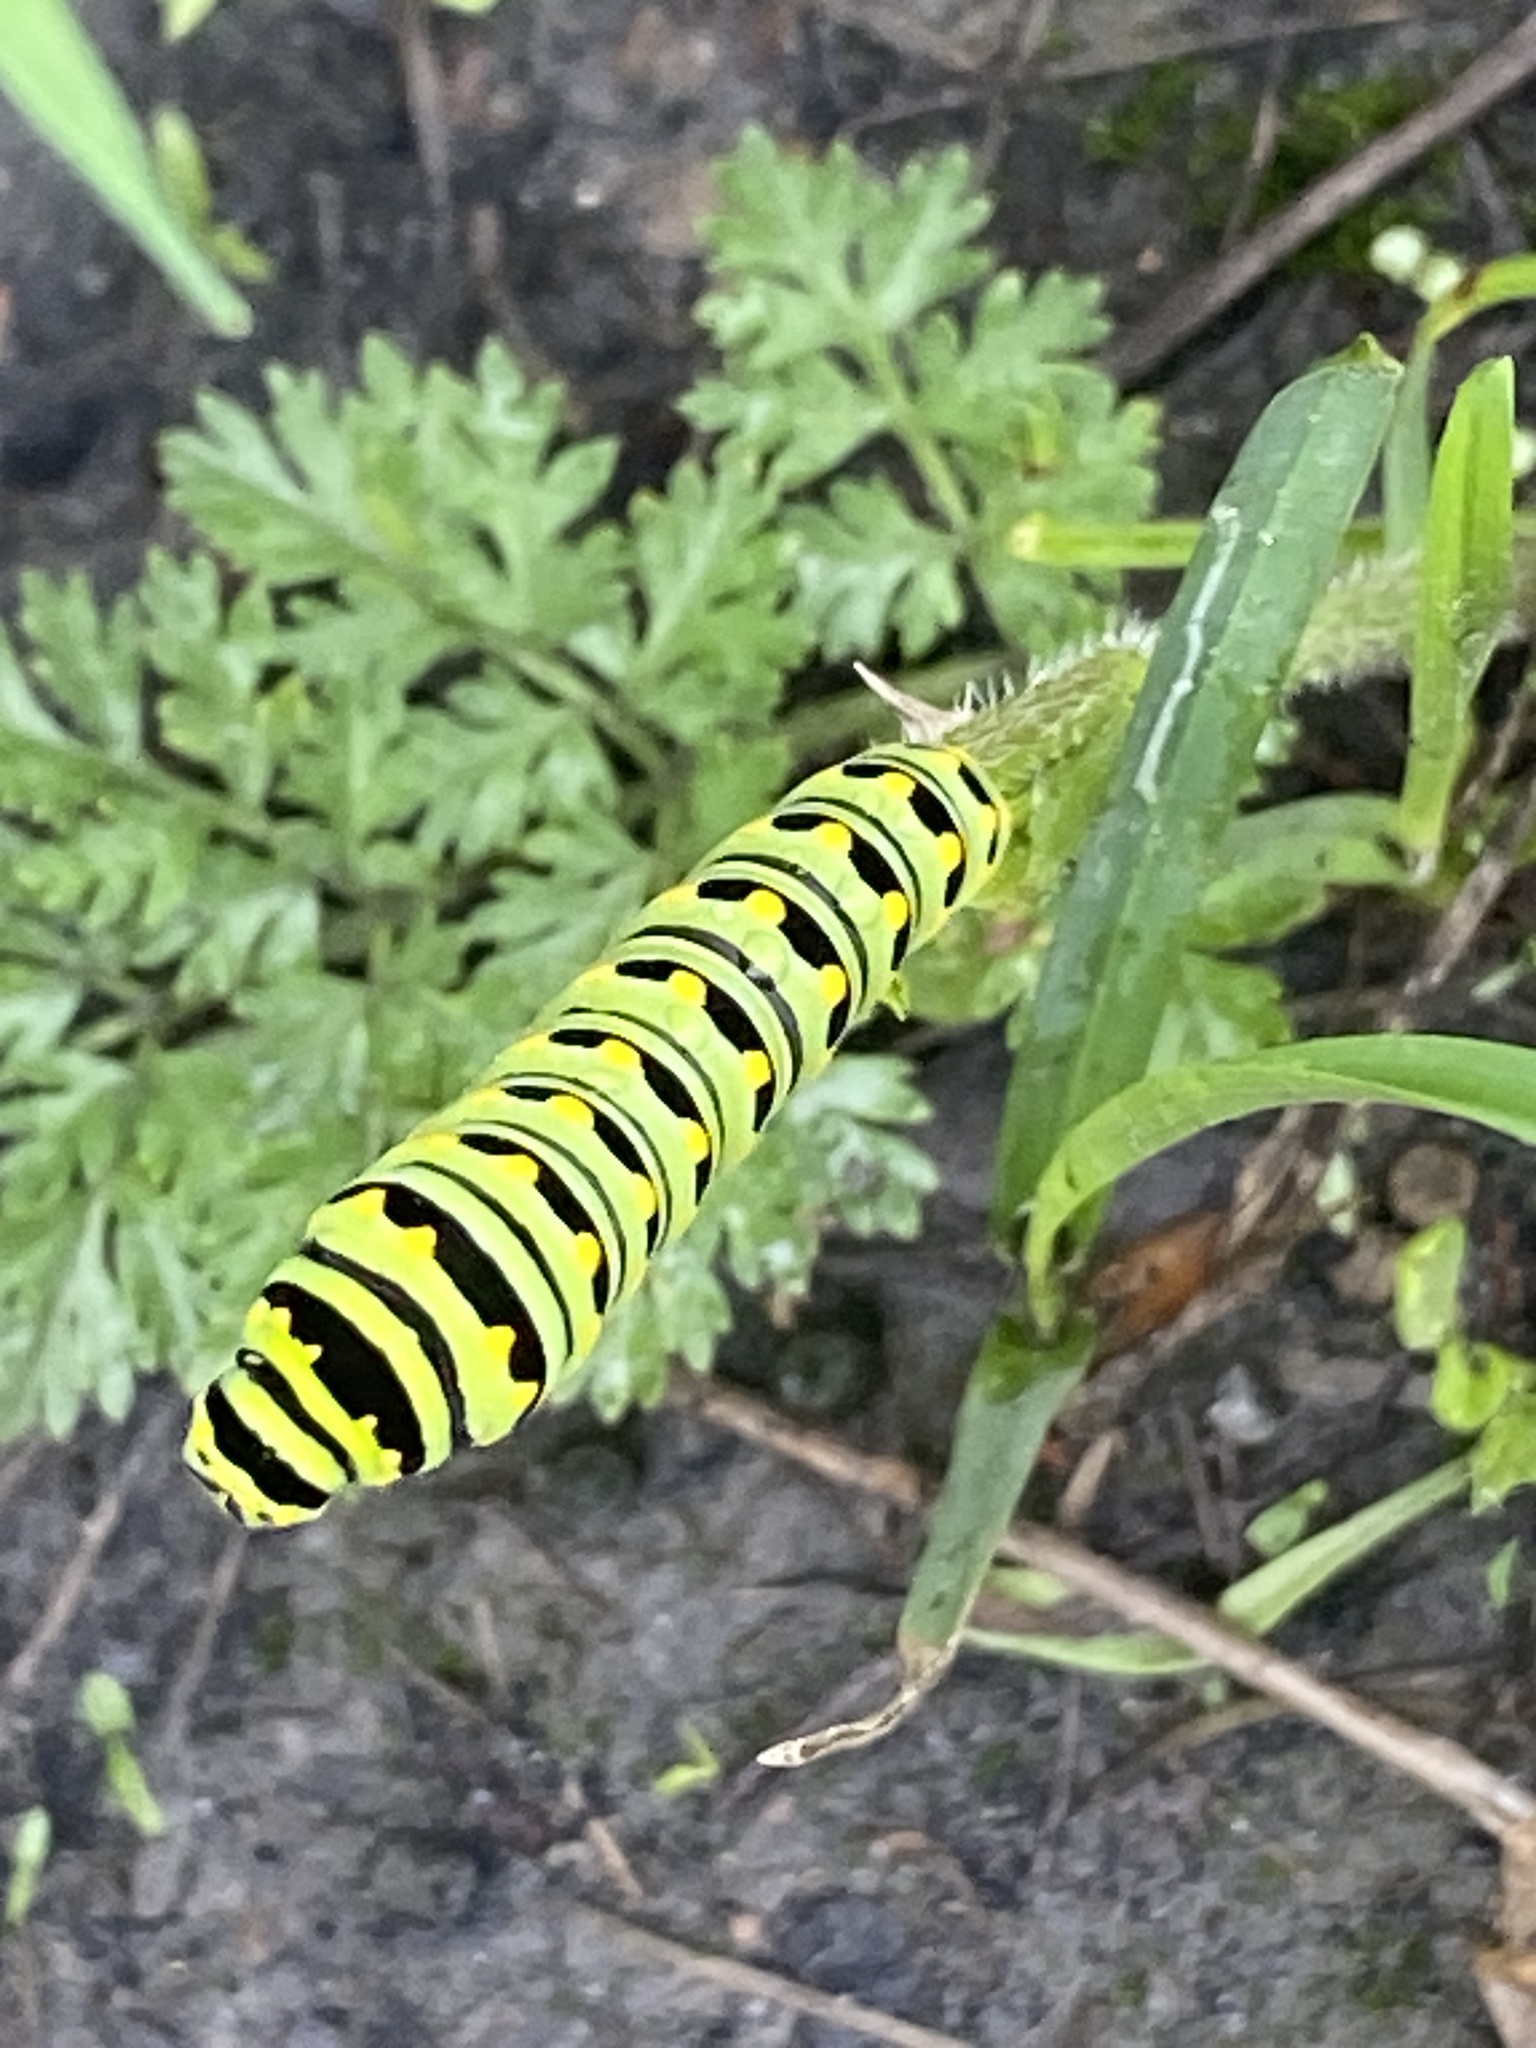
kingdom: Animalia
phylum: Arthropoda
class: Insecta
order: Lepidoptera
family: Papilionidae
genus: Papilio
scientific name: Papilio polyxenes
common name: Black swallowtail
